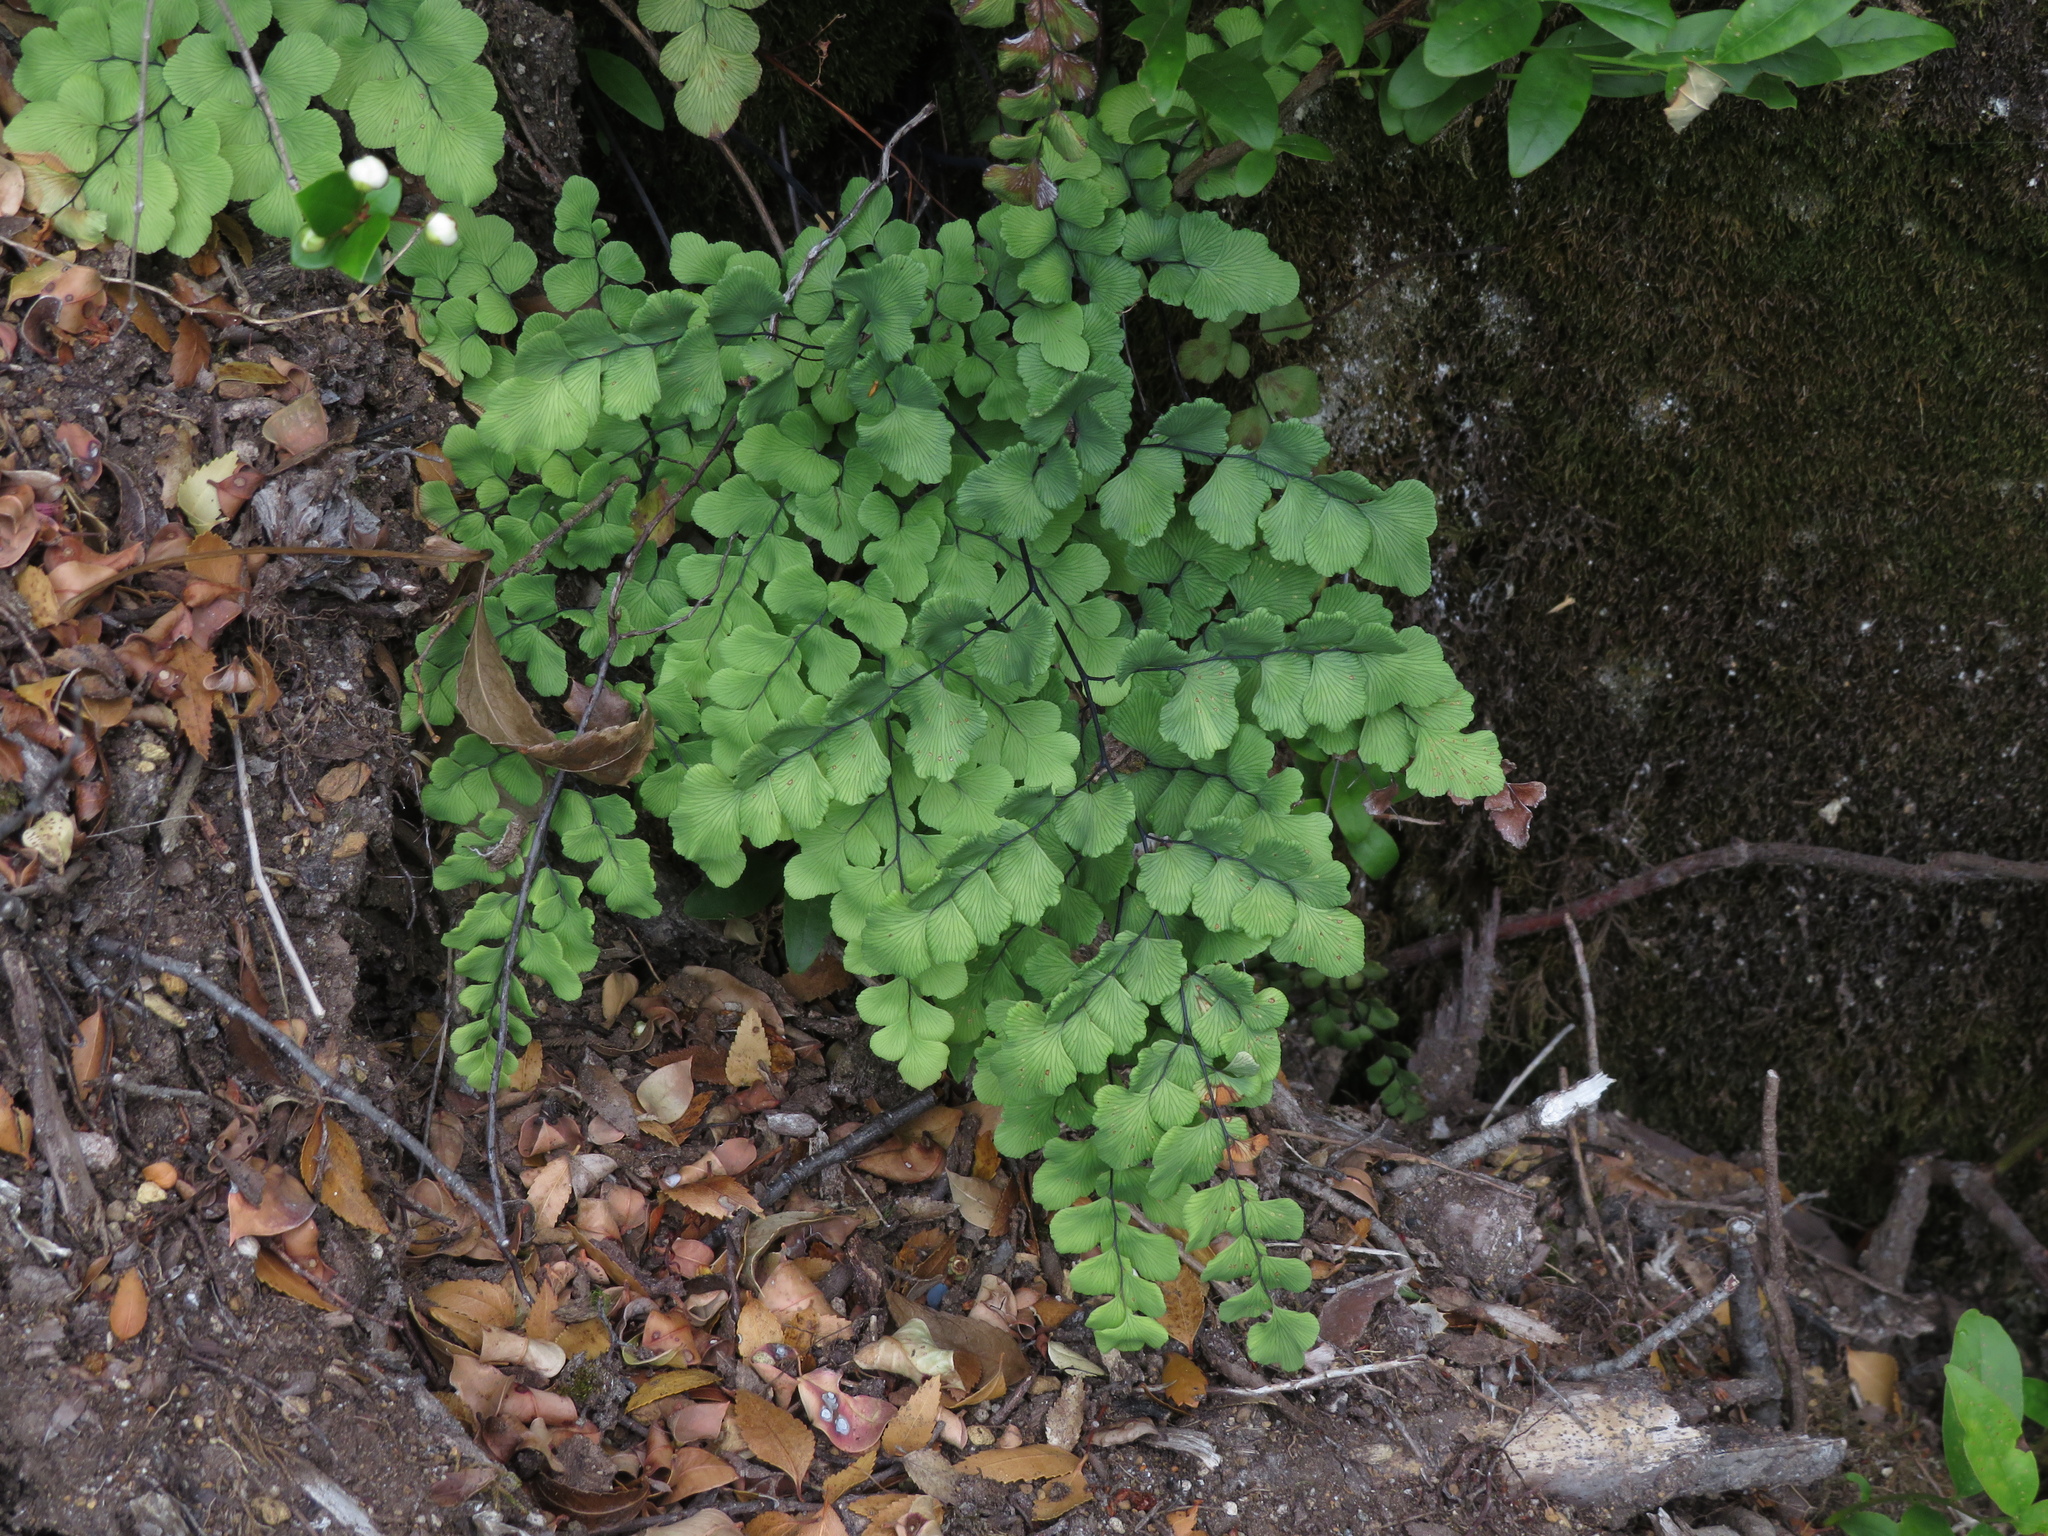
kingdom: Plantae
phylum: Tracheophyta
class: Polypodiopsida
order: Polypodiales
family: Pteridaceae
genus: Adiantum
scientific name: Adiantum chilense
